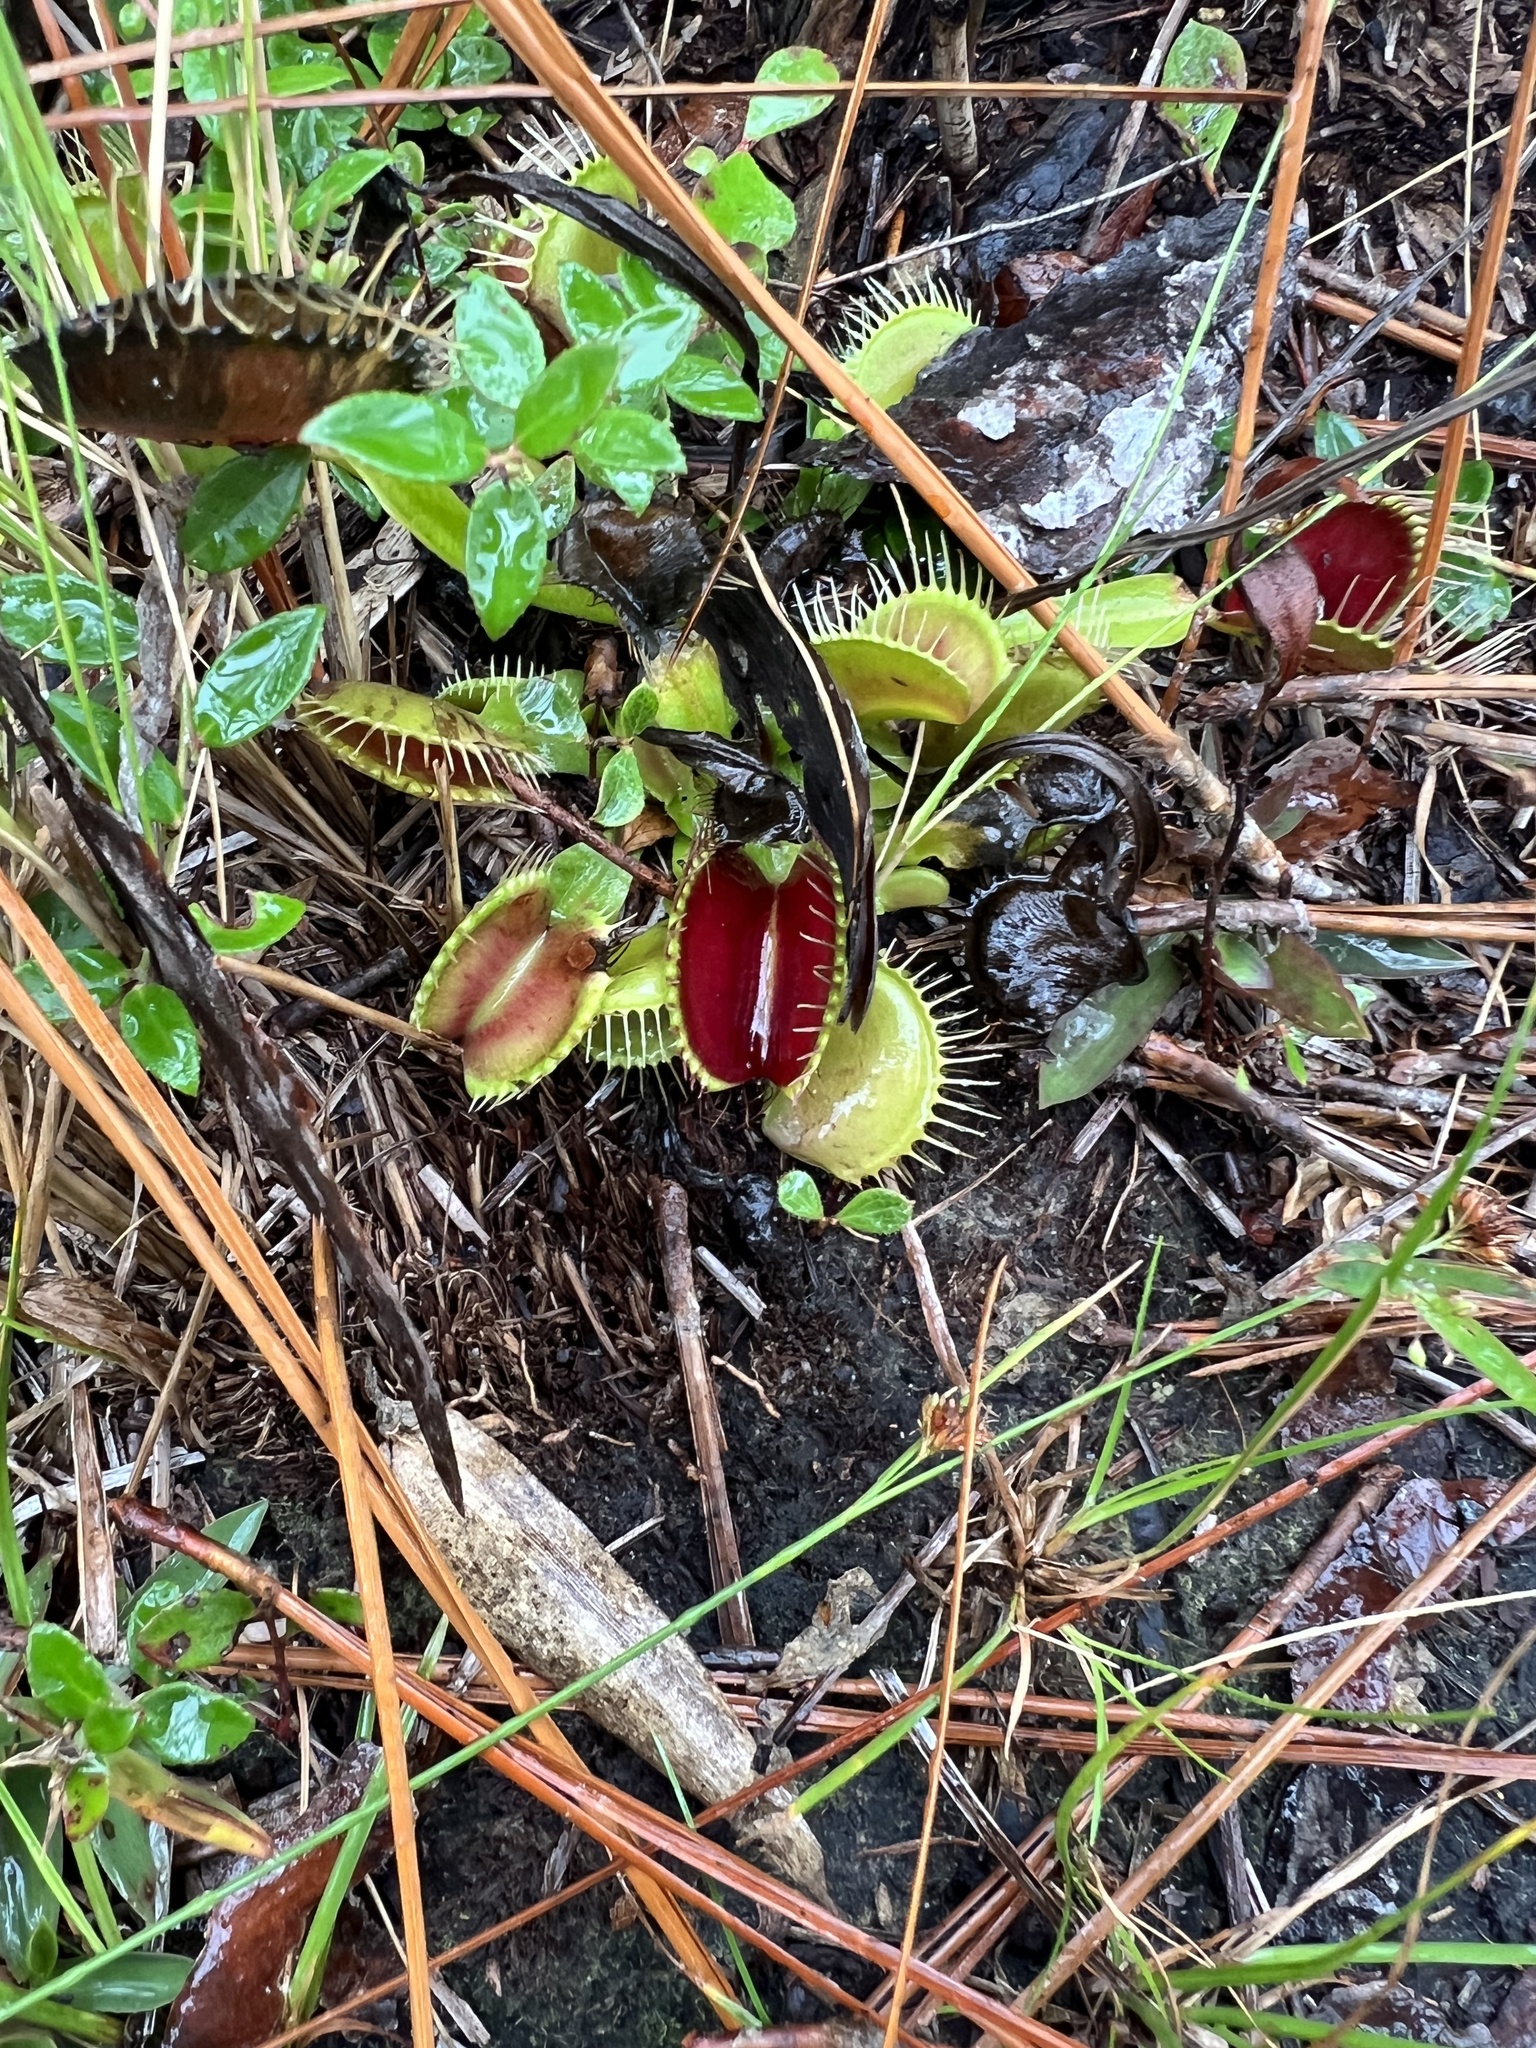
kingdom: Plantae
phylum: Tracheophyta
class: Magnoliopsida
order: Caryophyllales
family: Droseraceae
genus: Dionaea
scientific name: Dionaea muscipula
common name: Venus flytrap
